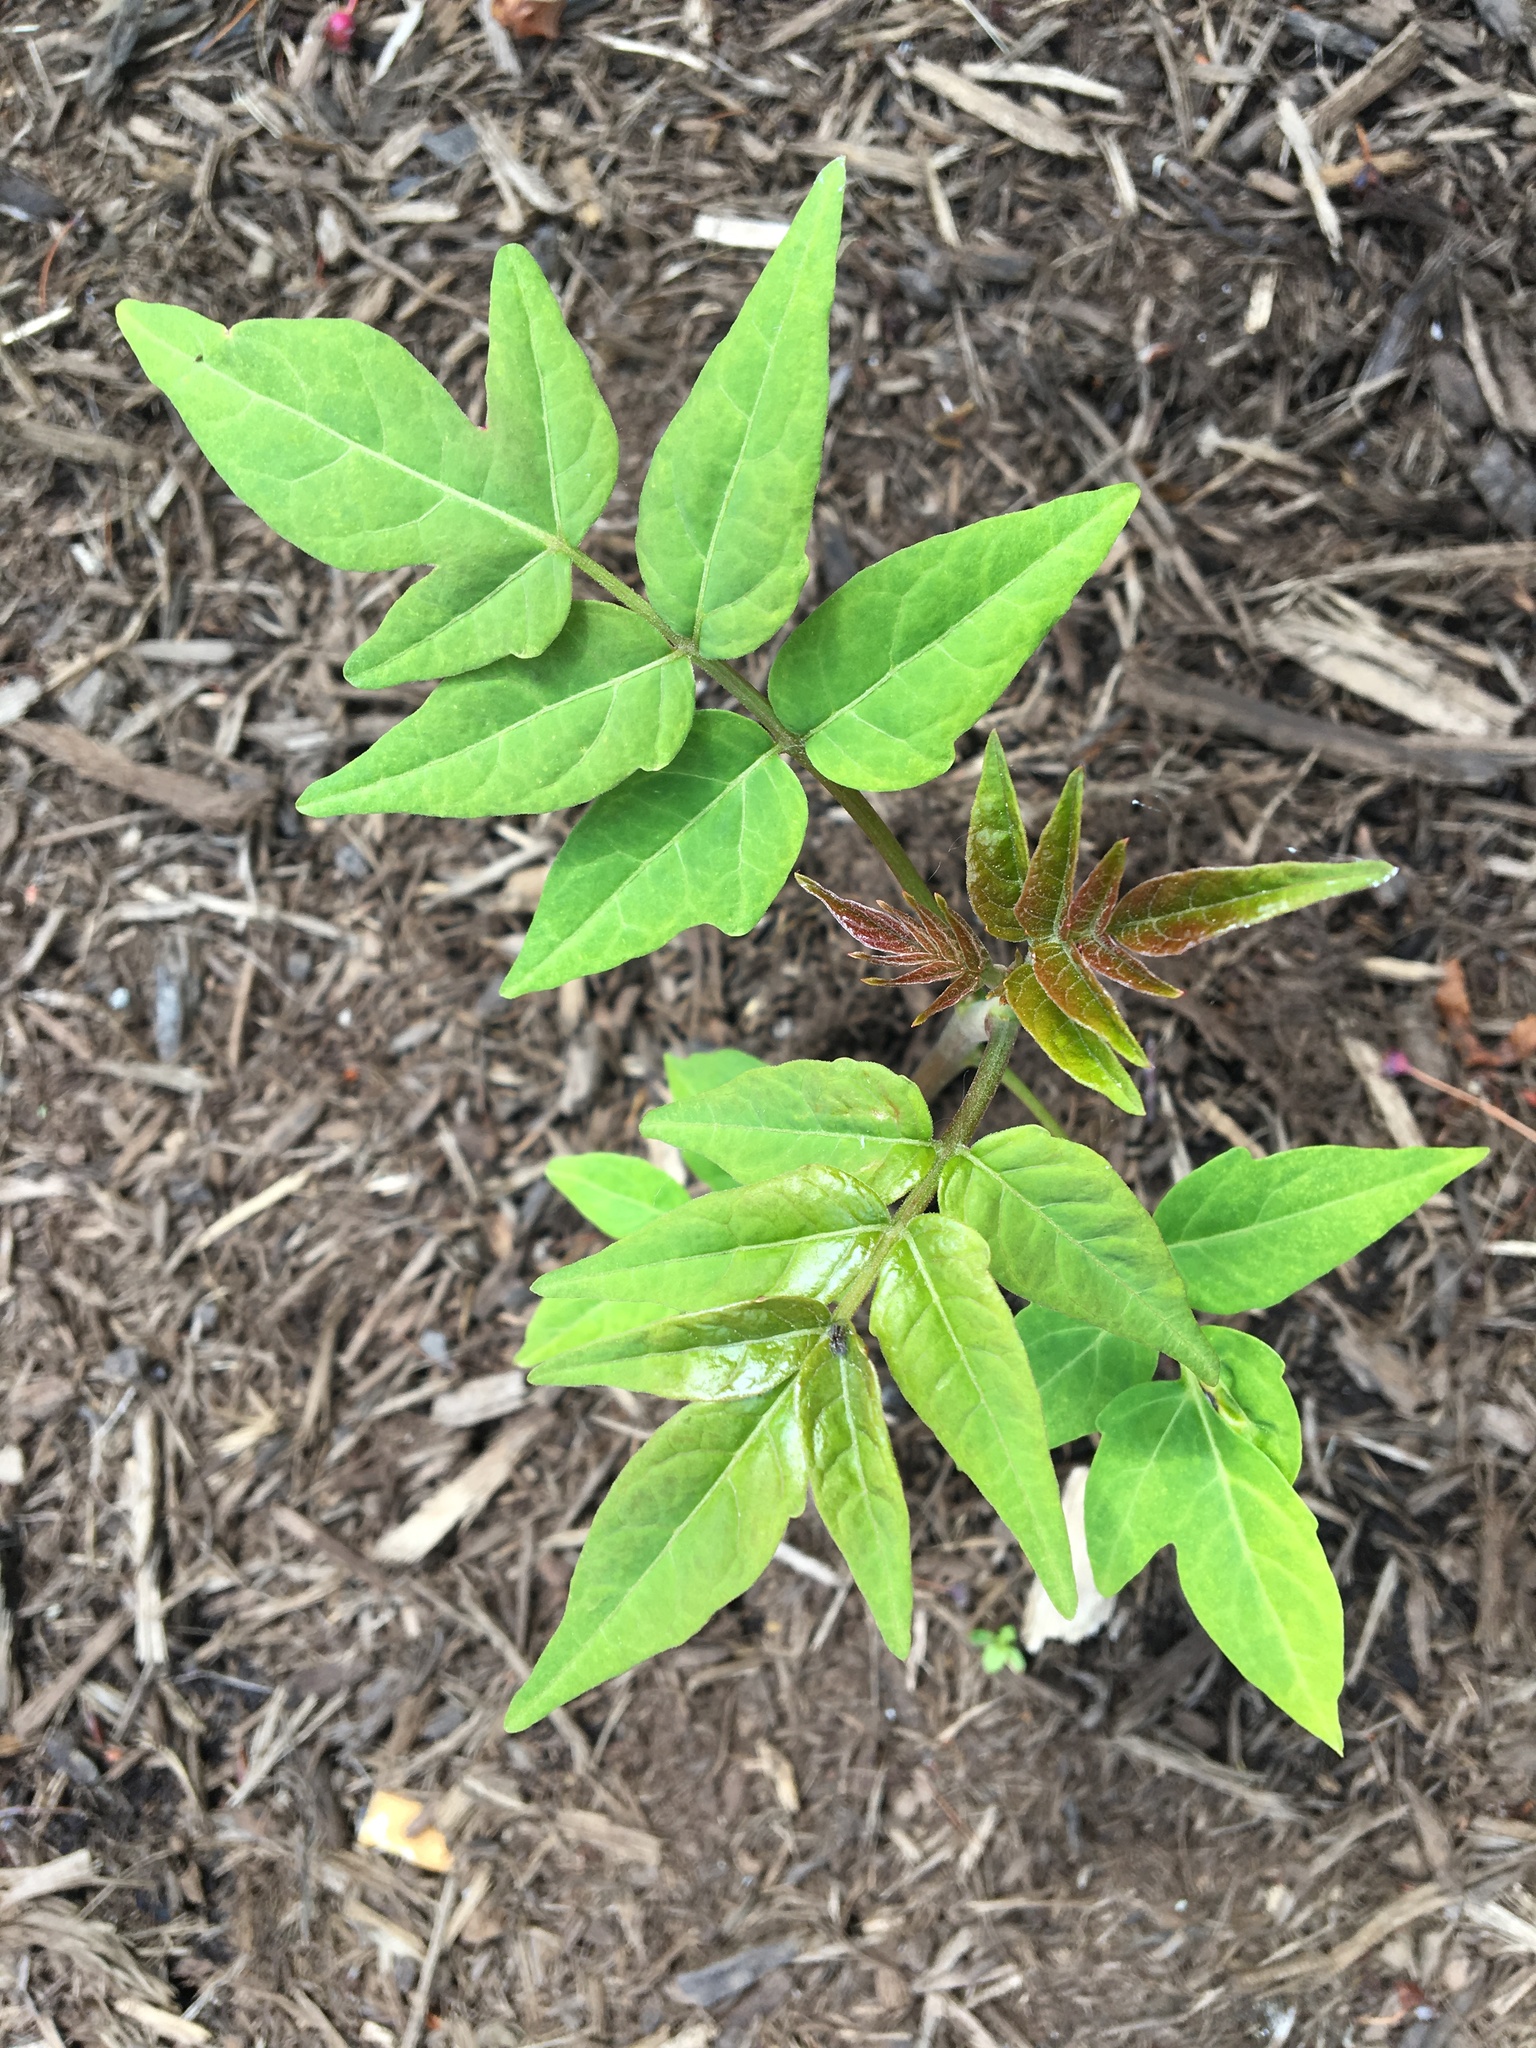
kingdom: Plantae
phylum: Tracheophyta
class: Magnoliopsida
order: Sapindales
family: Simaroubaceae
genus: Ailanthus
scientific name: Ailanthus altissima
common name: Tree-of-heaven
